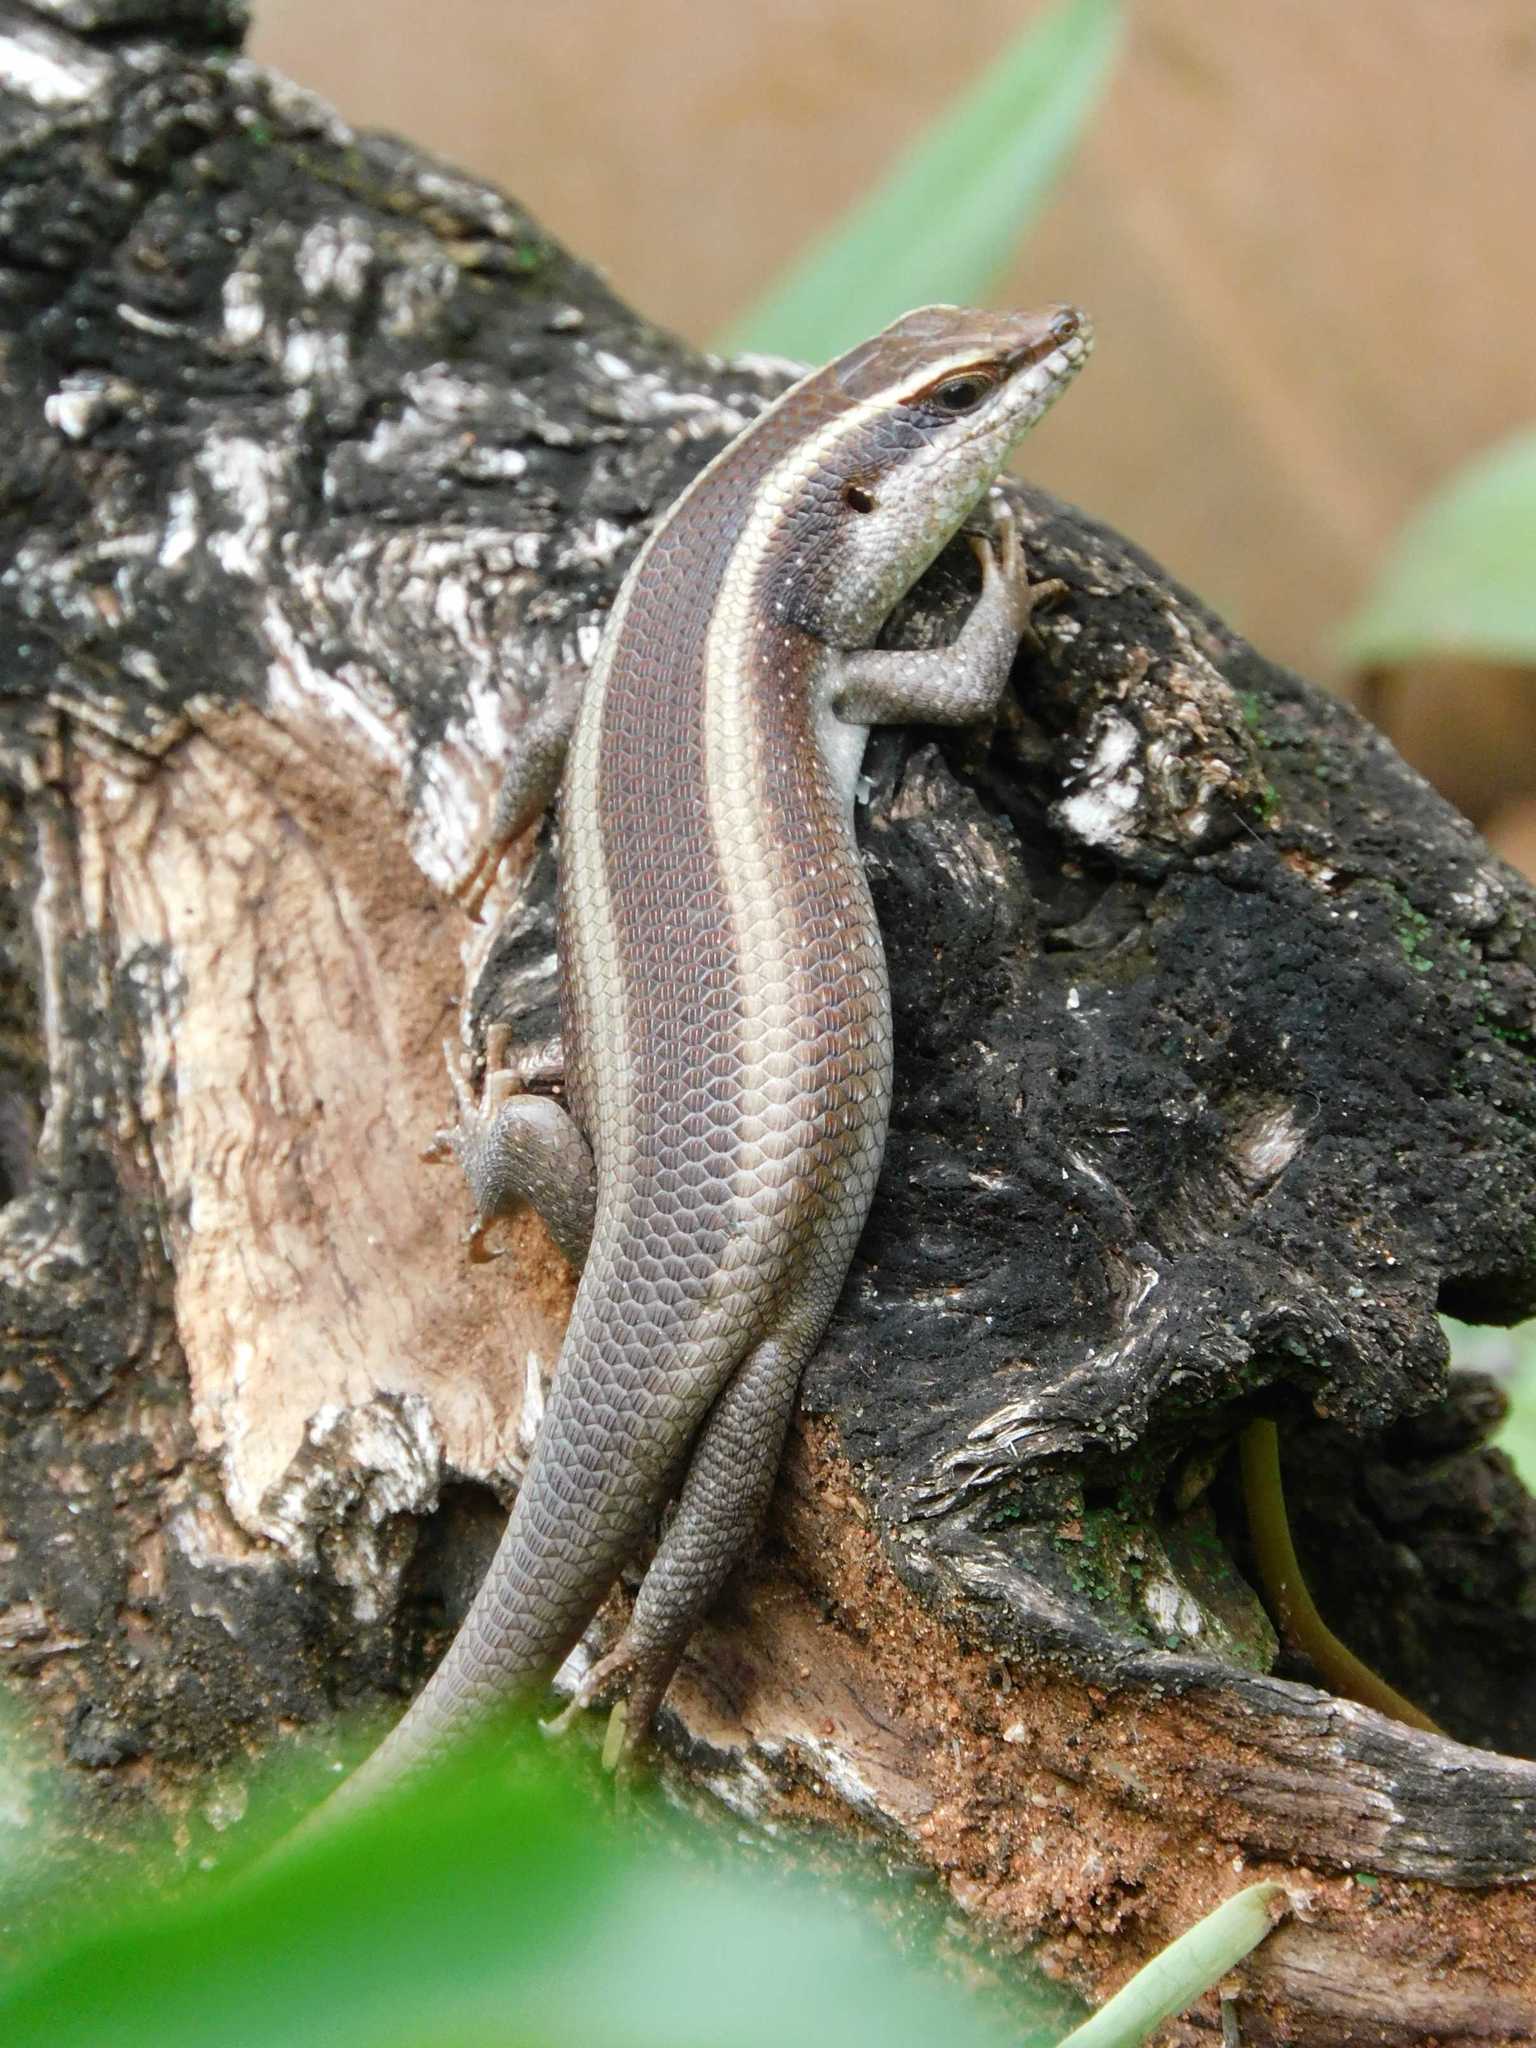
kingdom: Animalia
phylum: Chordata
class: Squamata
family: Scincidae
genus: Trachylepis
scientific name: Trachylepis striata
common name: African striped mabuya
